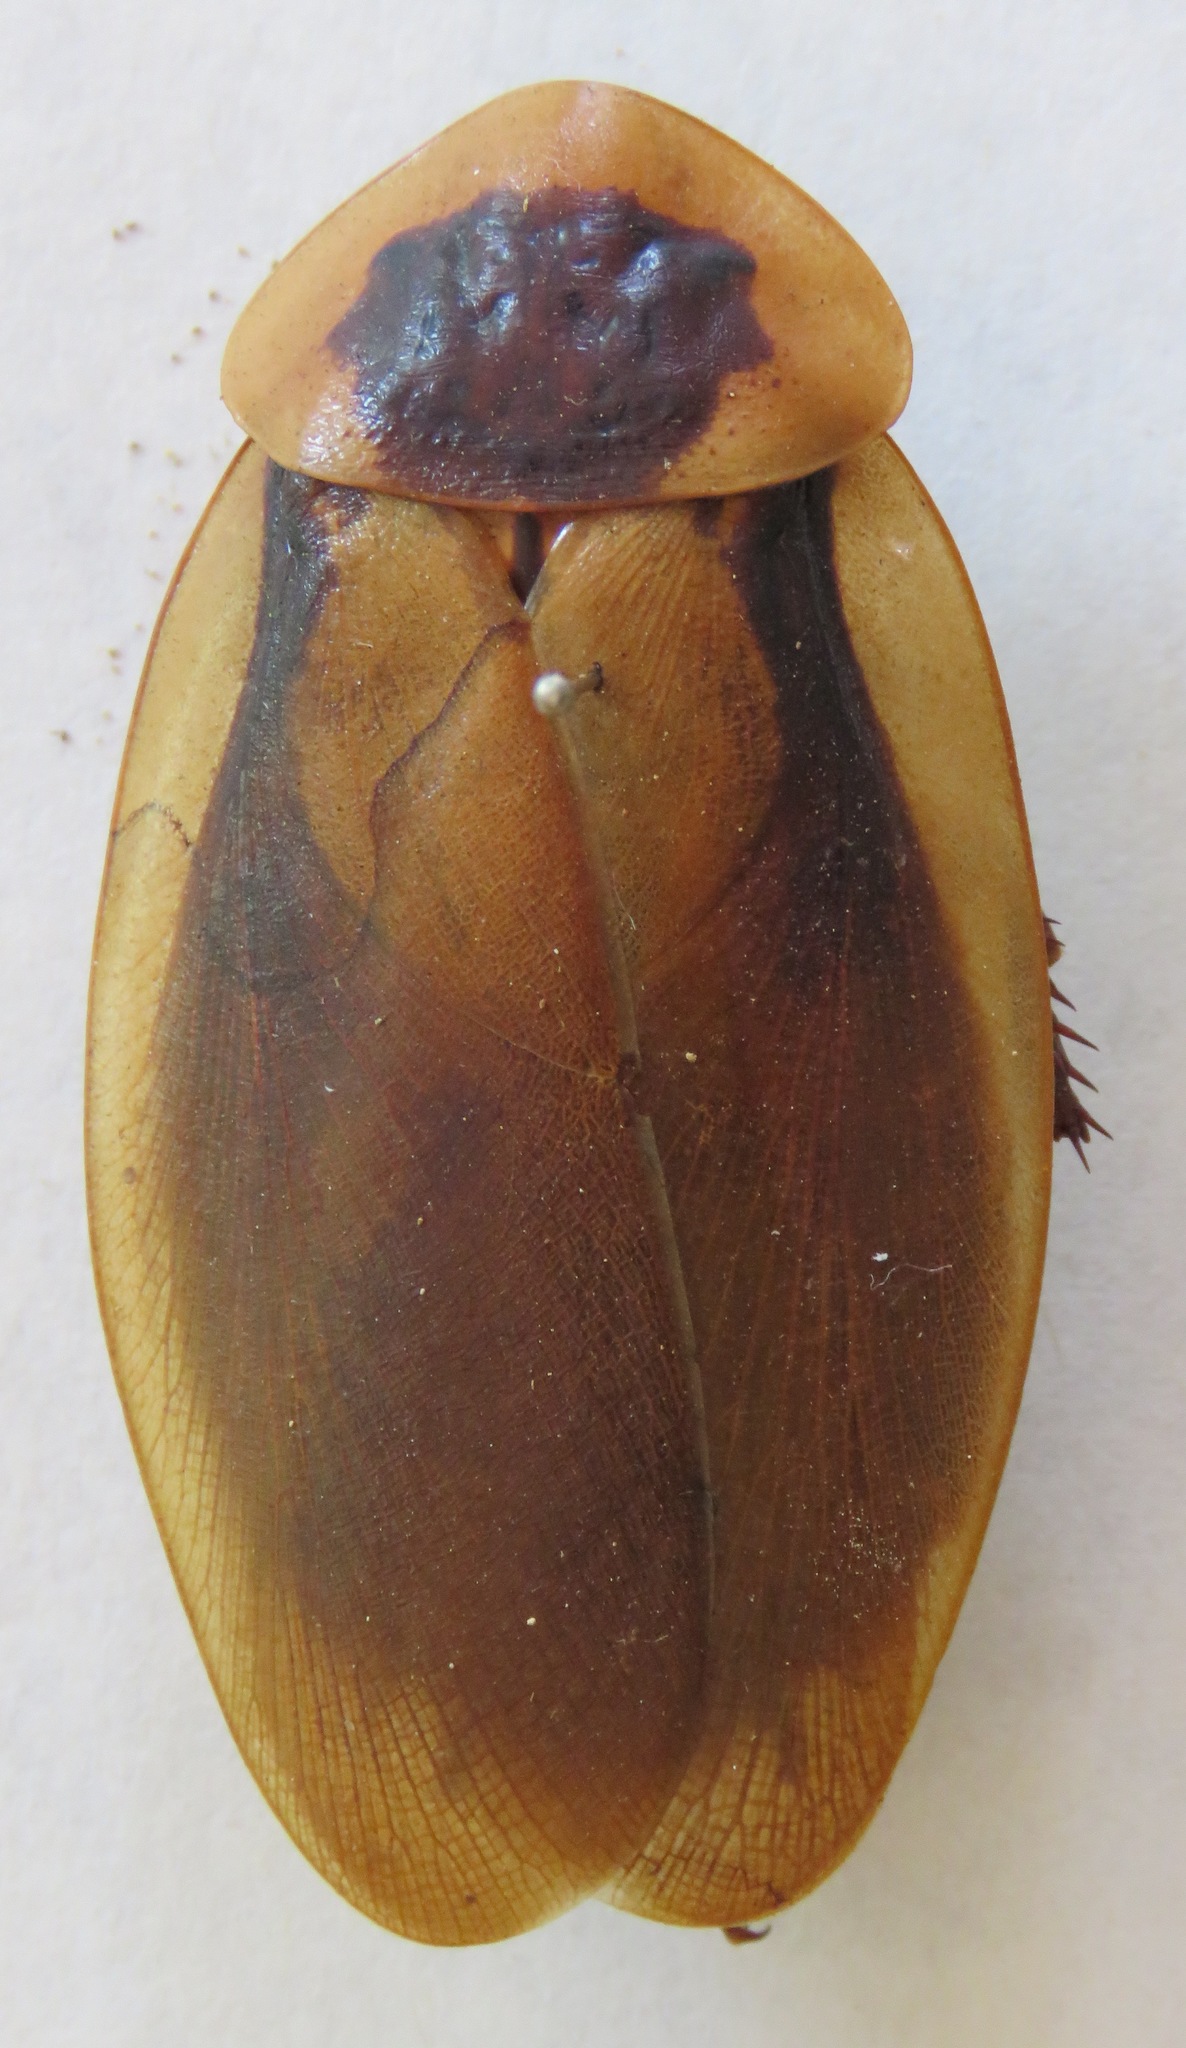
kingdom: Animalia
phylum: Arthropoda
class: Insecta
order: Blattodea
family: Blaberidae
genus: Blaberus
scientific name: Blaberus discoidalis
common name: Discoid cockroach
